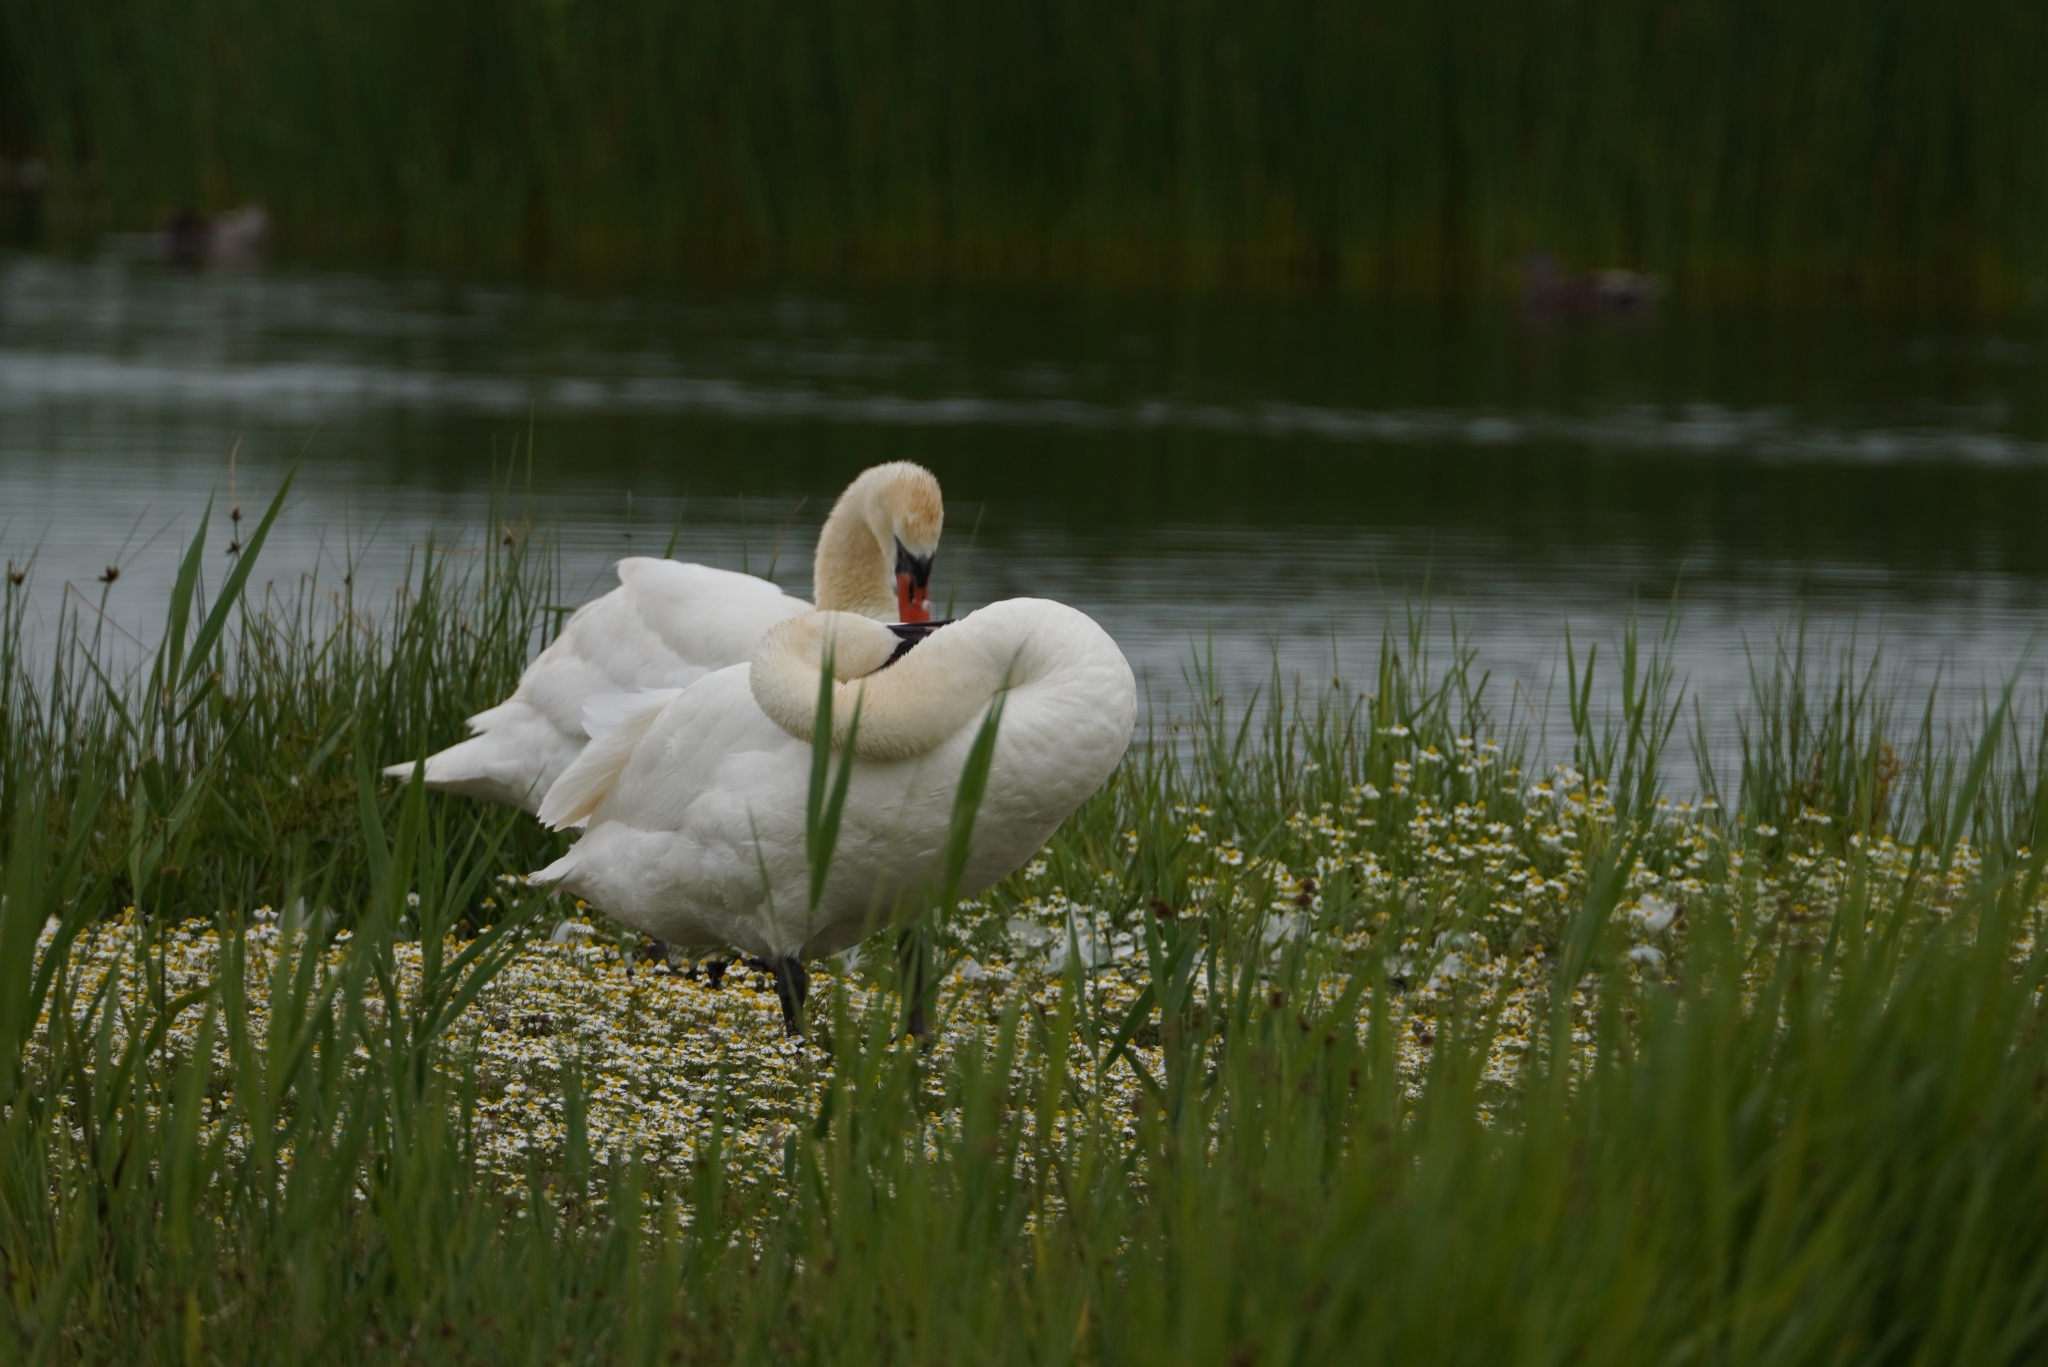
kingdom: Animalia
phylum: Chordata
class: Aves
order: Anseriformes
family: Anatidae
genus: Cygnus
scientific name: Cygnus olor
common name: Mute swan
